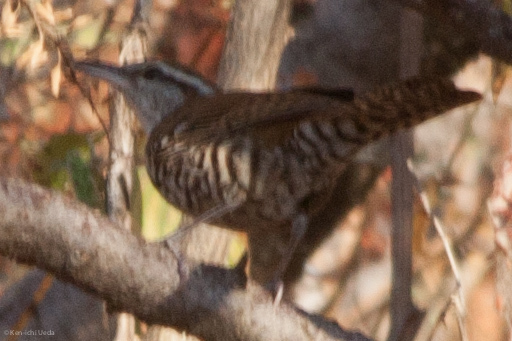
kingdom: Animalia
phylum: Chordata
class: Aves
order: Passeriformes
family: Troglodytidae
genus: Thryophilus
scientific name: Thryophilus pleurostictus
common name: Banded wren
